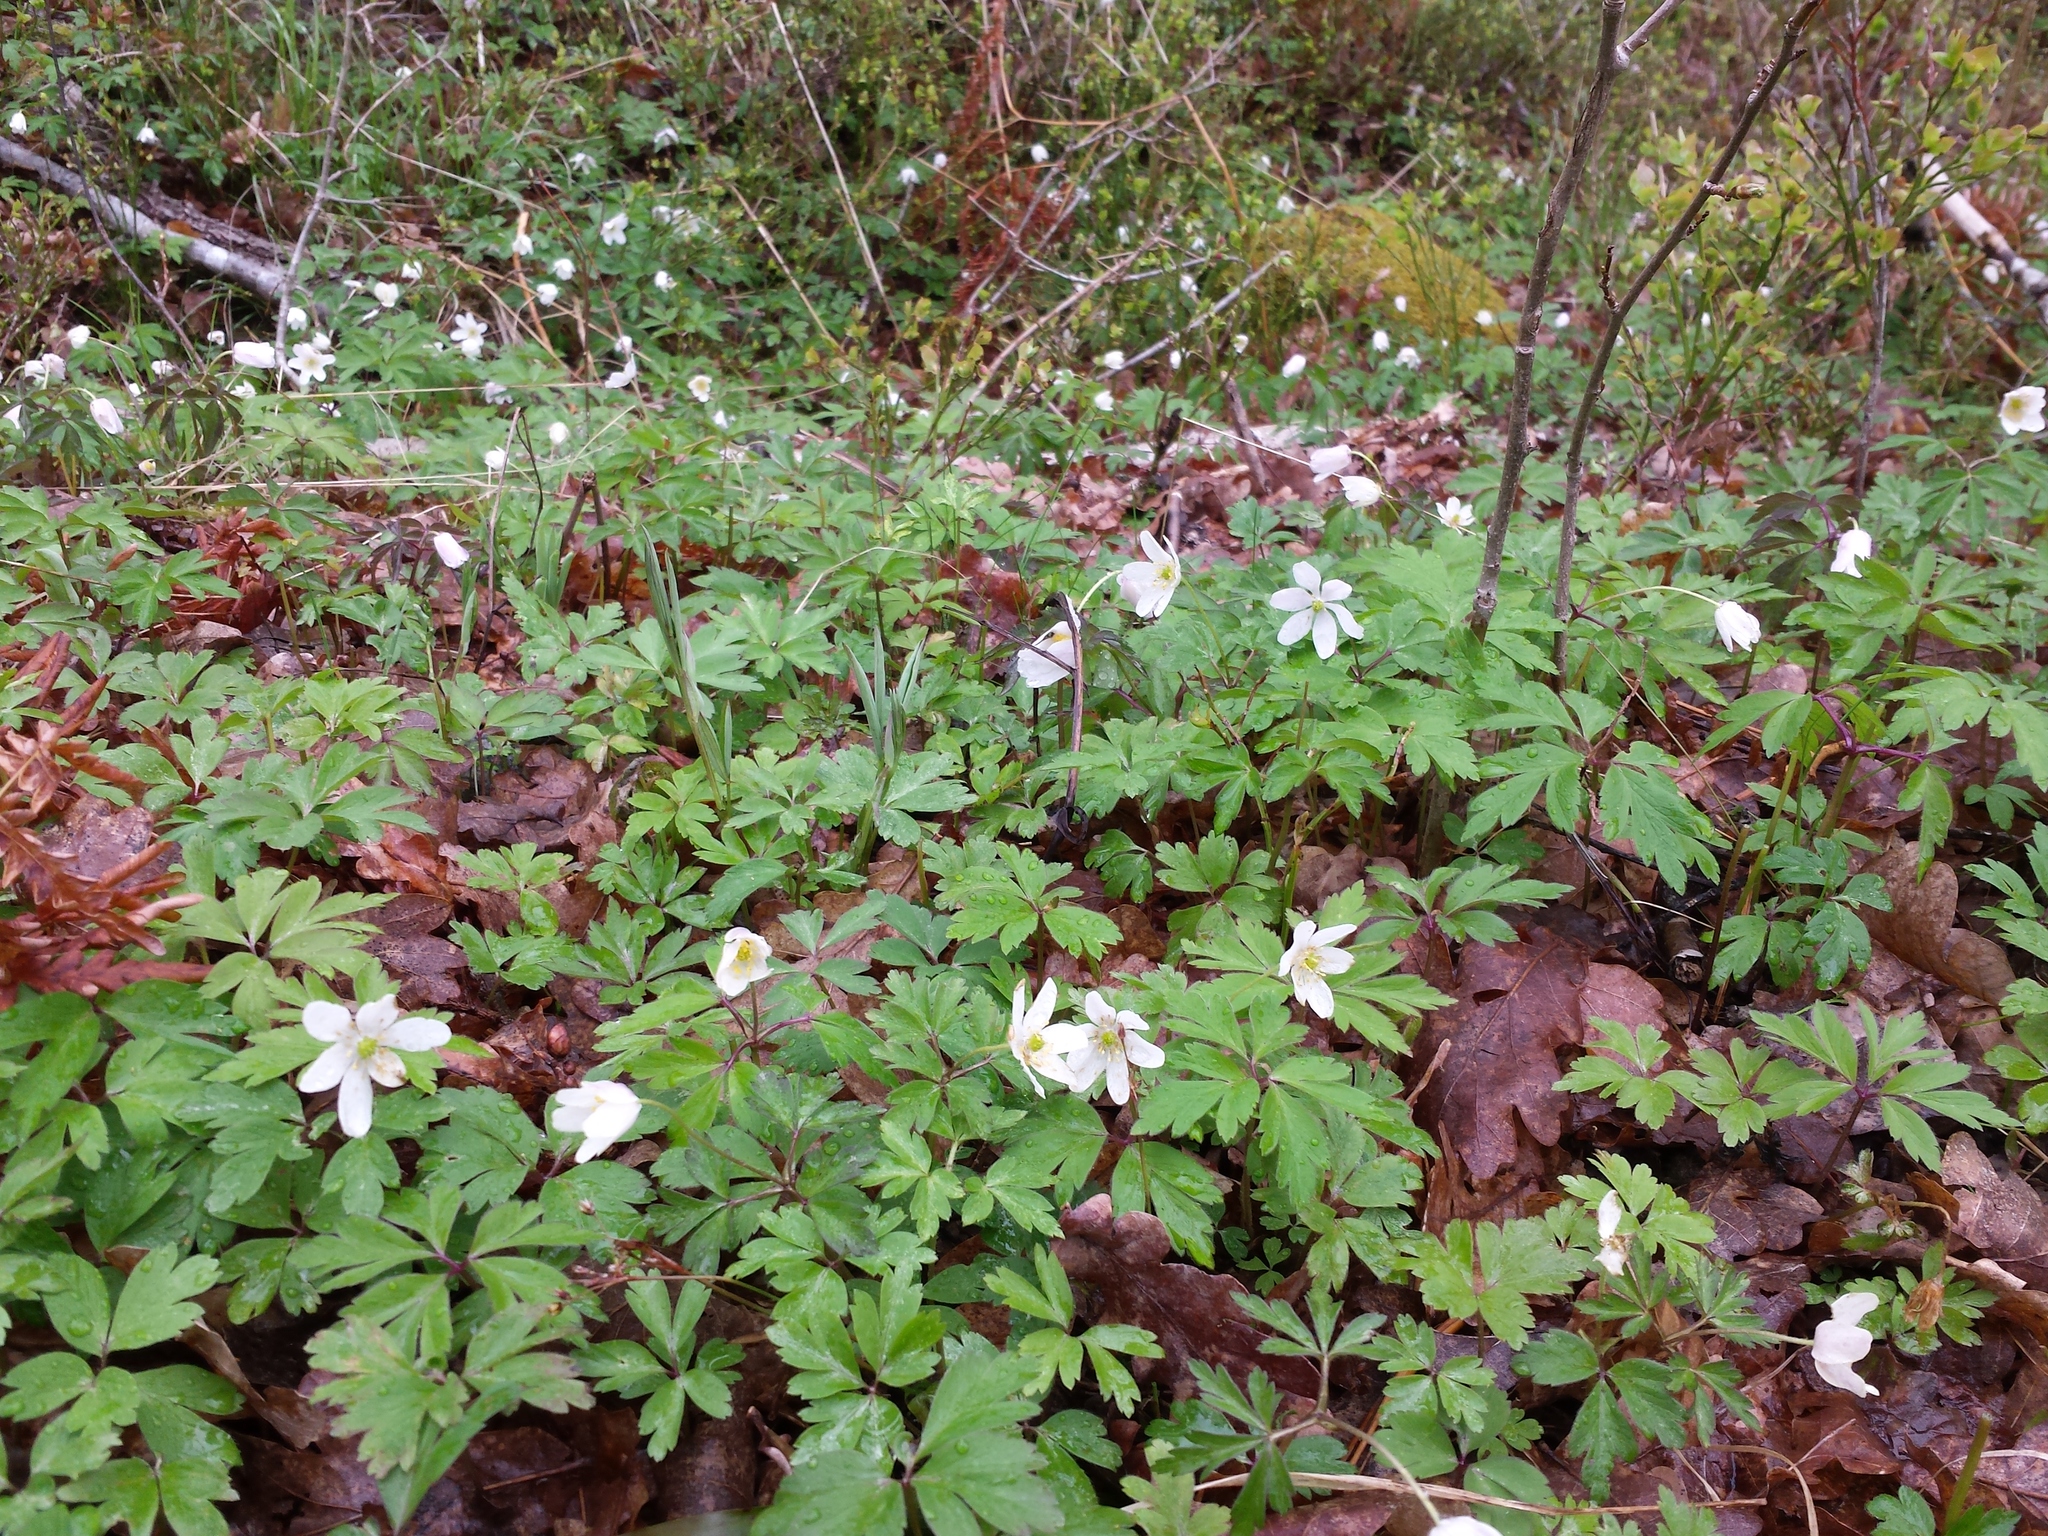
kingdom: Plantae
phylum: Tracheophyta
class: Magnoliopsida
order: Ranunculales
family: Ranunculaceae
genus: Anemone
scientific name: Anemone nemorosa
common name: Wood anemone
